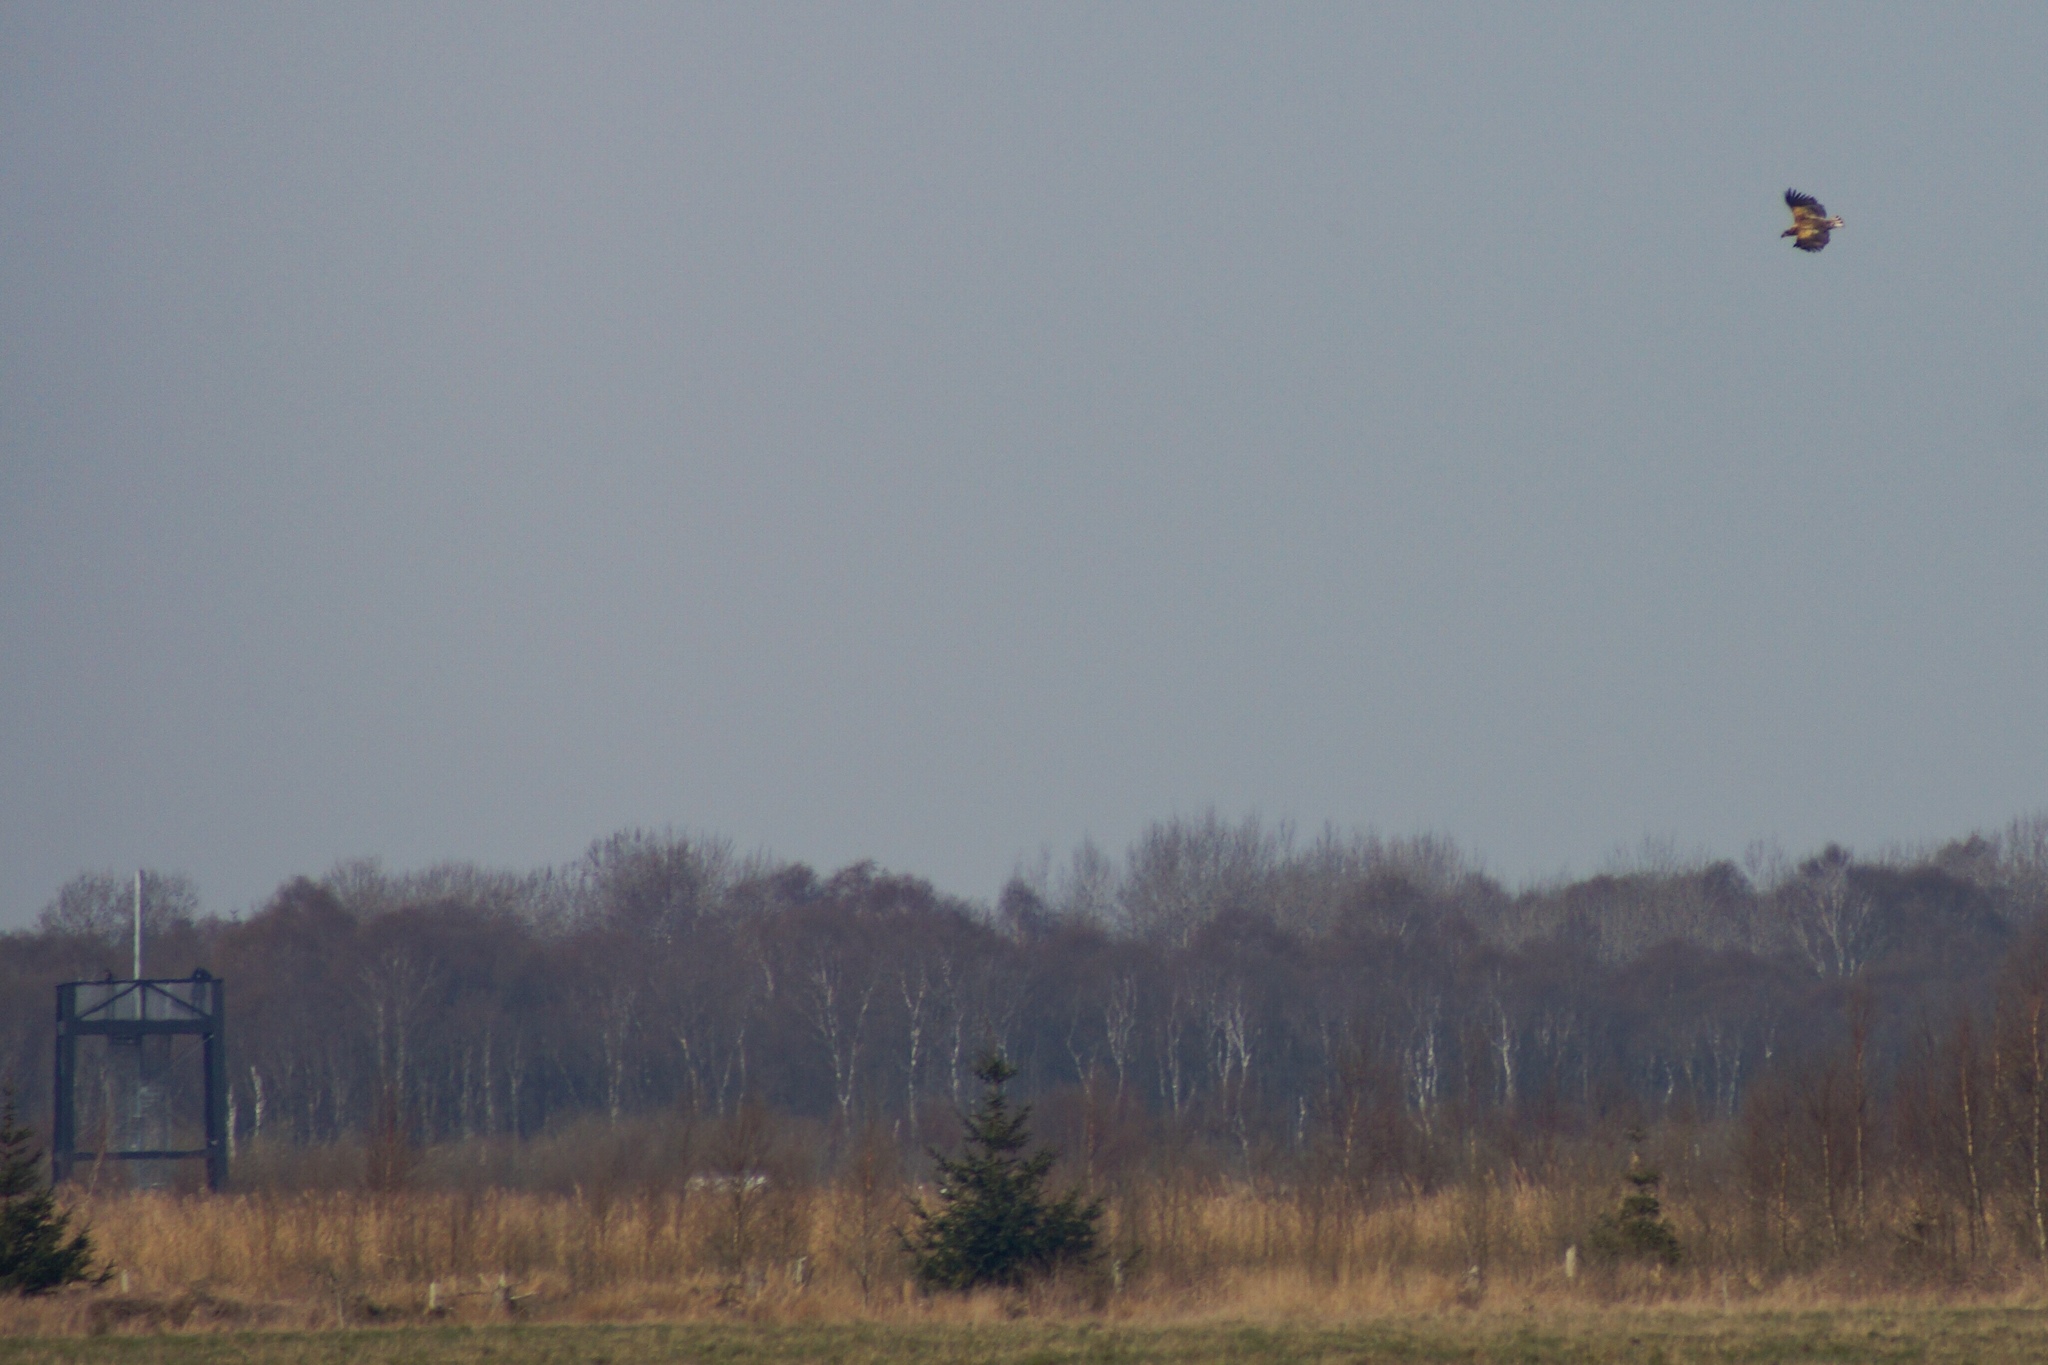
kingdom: Animalia
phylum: Chordata
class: Aves
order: Accipitriformes
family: Accipitridae
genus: Haliaeetus
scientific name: Haliaeetus albicilla
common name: White-tailed eagle
